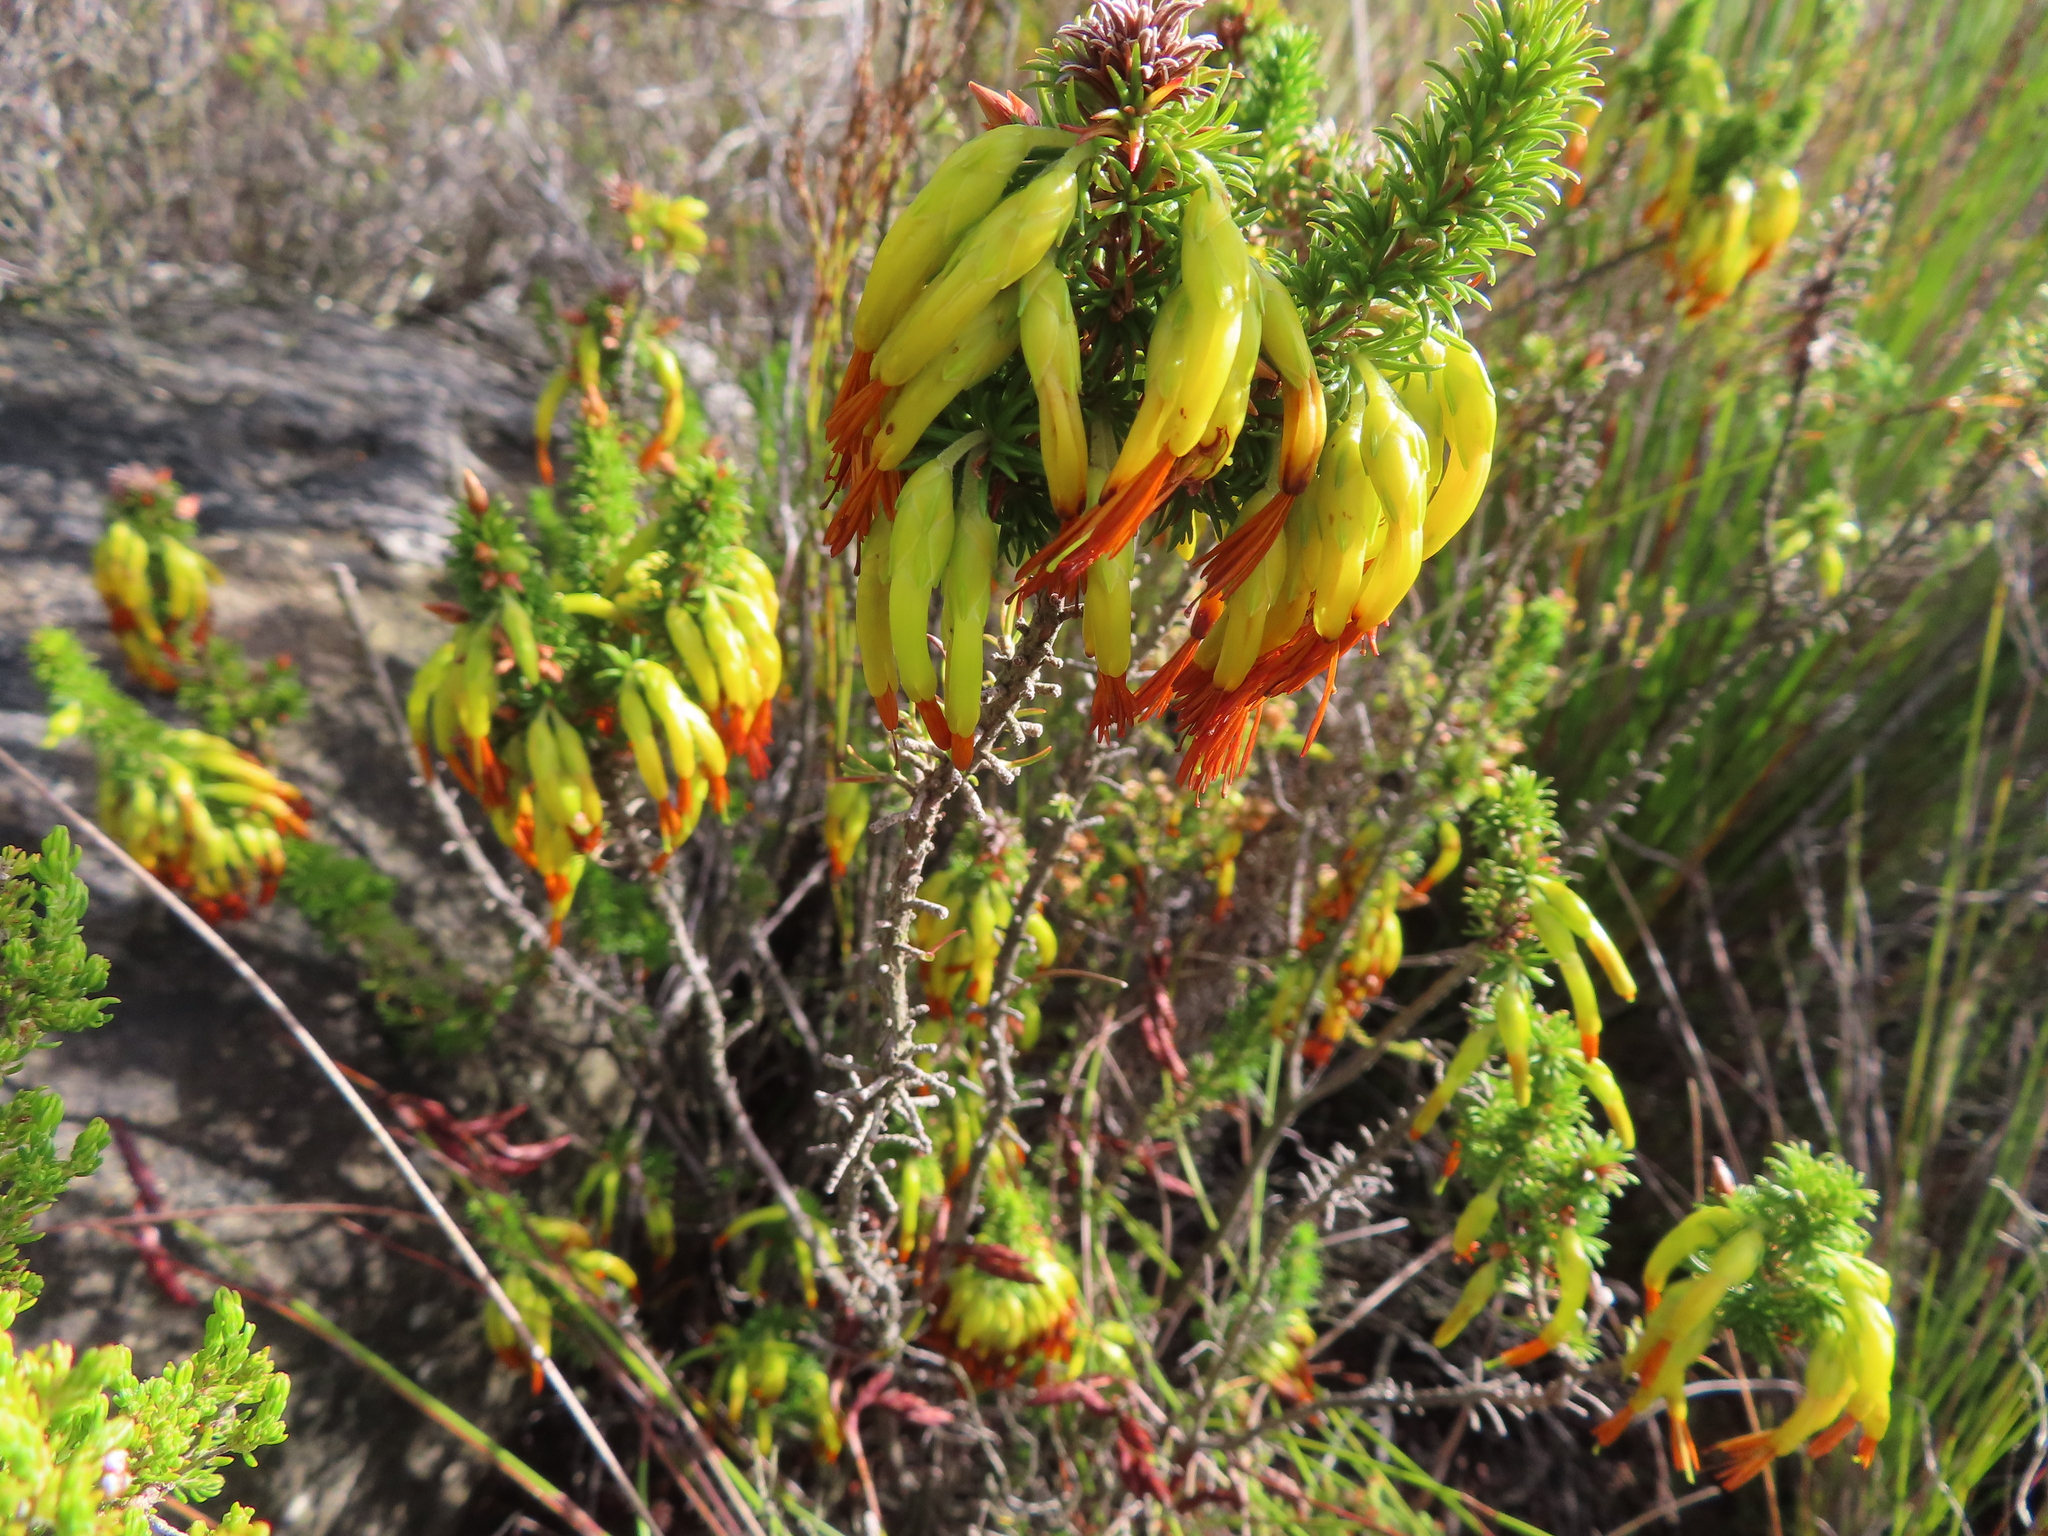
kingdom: Plantae
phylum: Tracheophyta
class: Magnoliopsida
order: Ericales
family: Ericaceae
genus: Erica
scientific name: Erica coccinea
